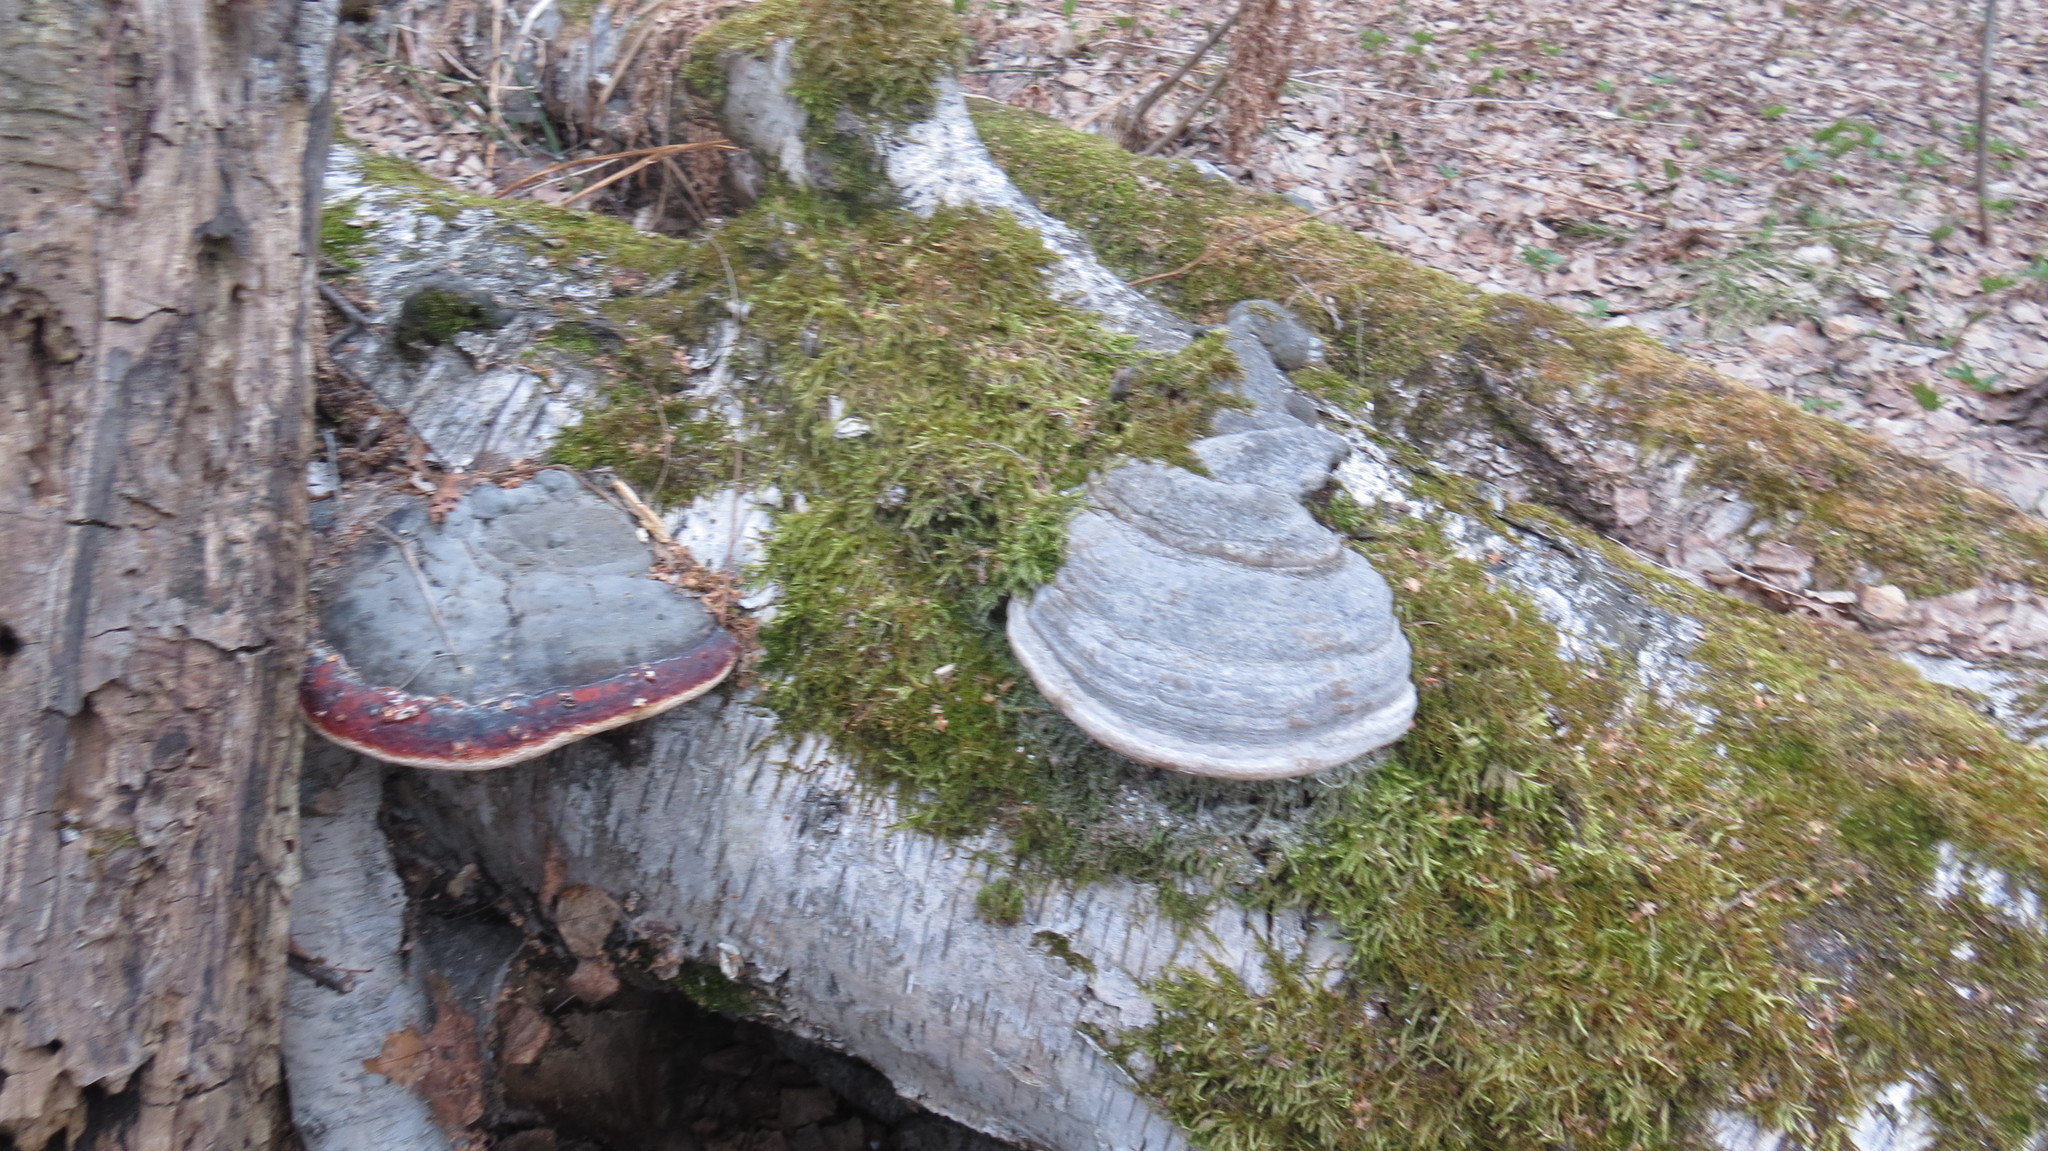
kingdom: Fungi
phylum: Basidiomycota
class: Agaricomycetes
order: Polyporales
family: Fomitopsidaceae
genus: Fomitopsis
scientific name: Fomitopsis pinicola
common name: Red-belted bracket
